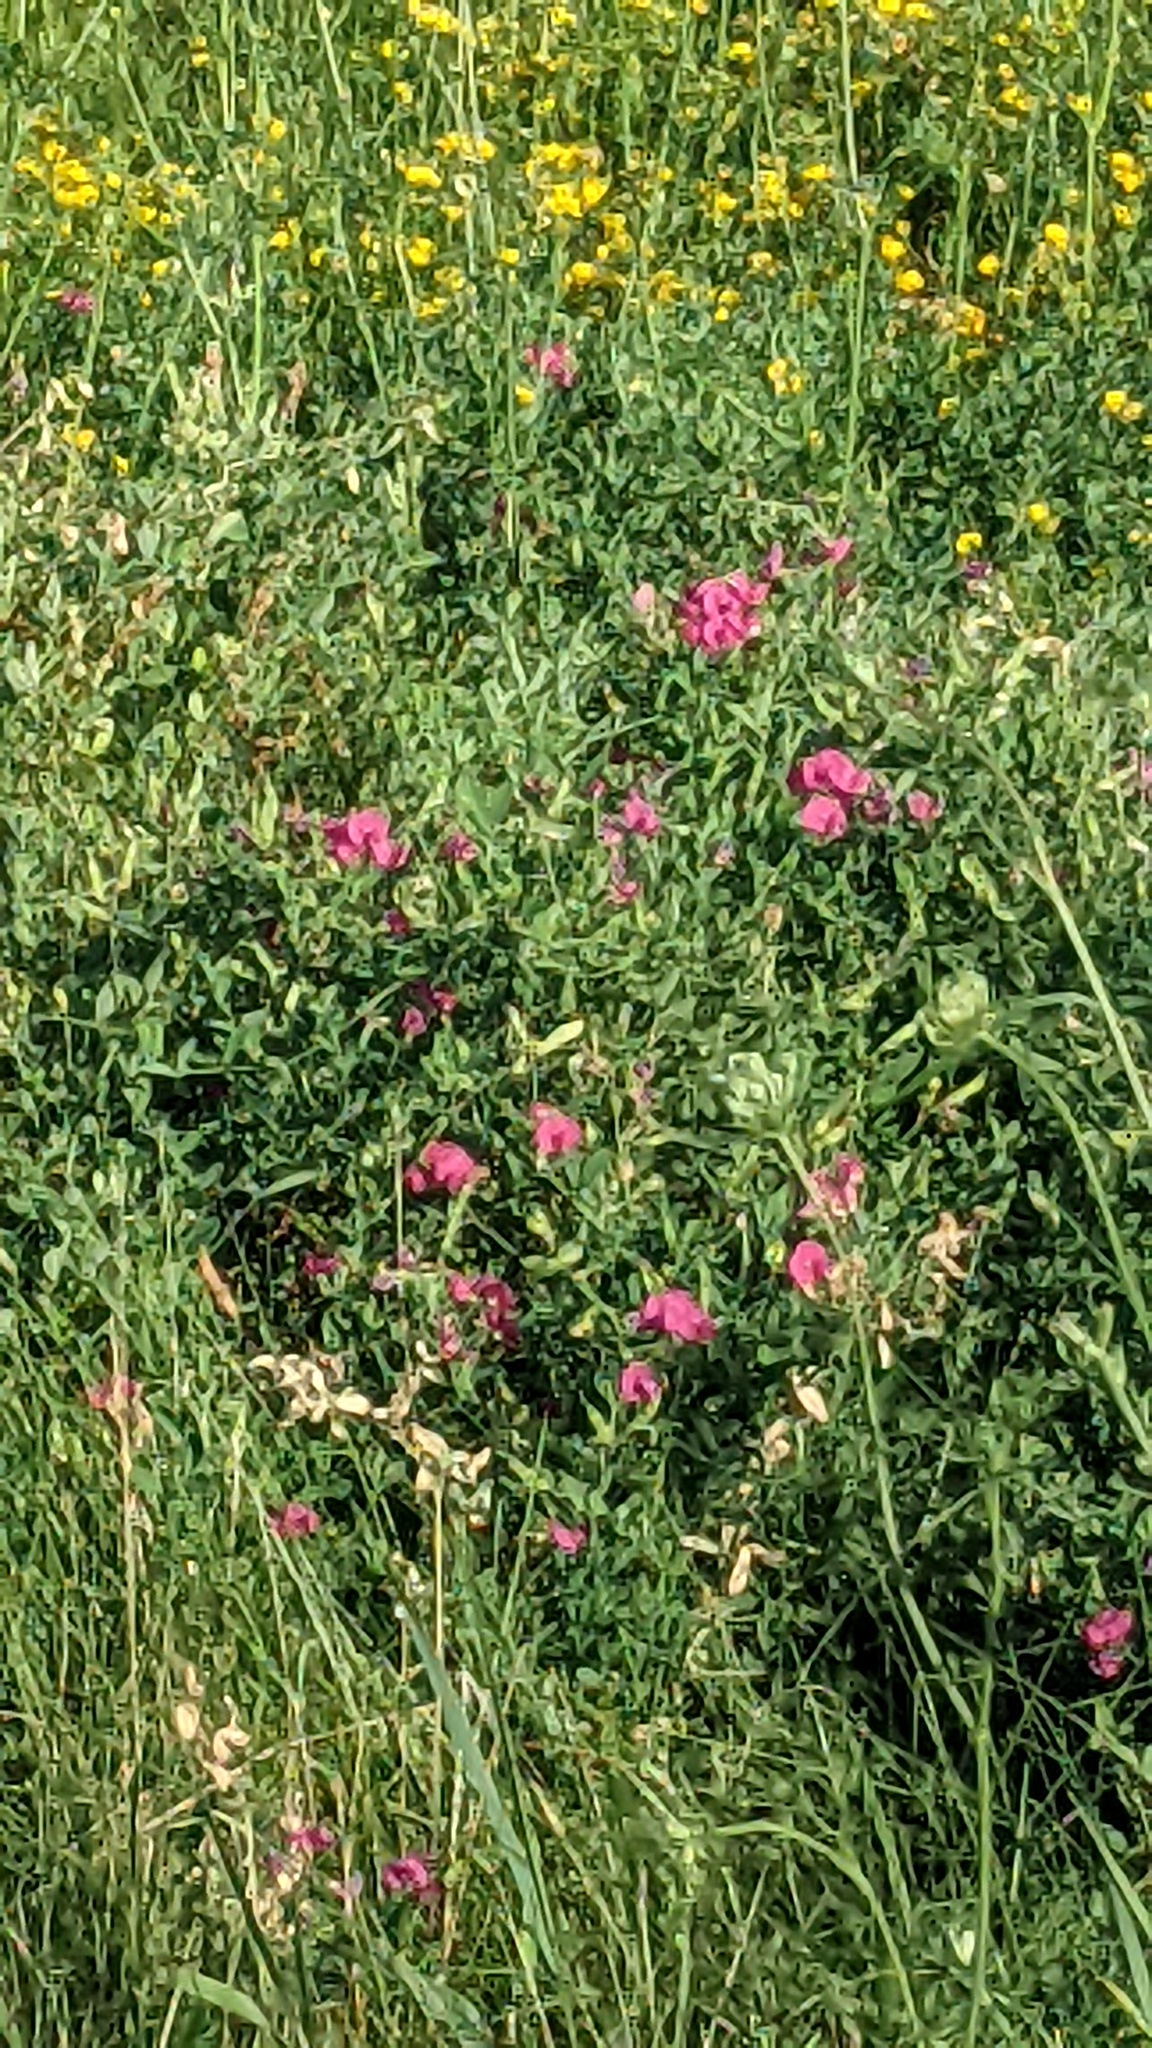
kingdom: Plantae
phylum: Tracheophyta
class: Magnoliopsida
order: Fabales
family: Fabaceae
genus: Lathyrus
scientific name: Lathyrus tuberosus
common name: Tuberous pea
